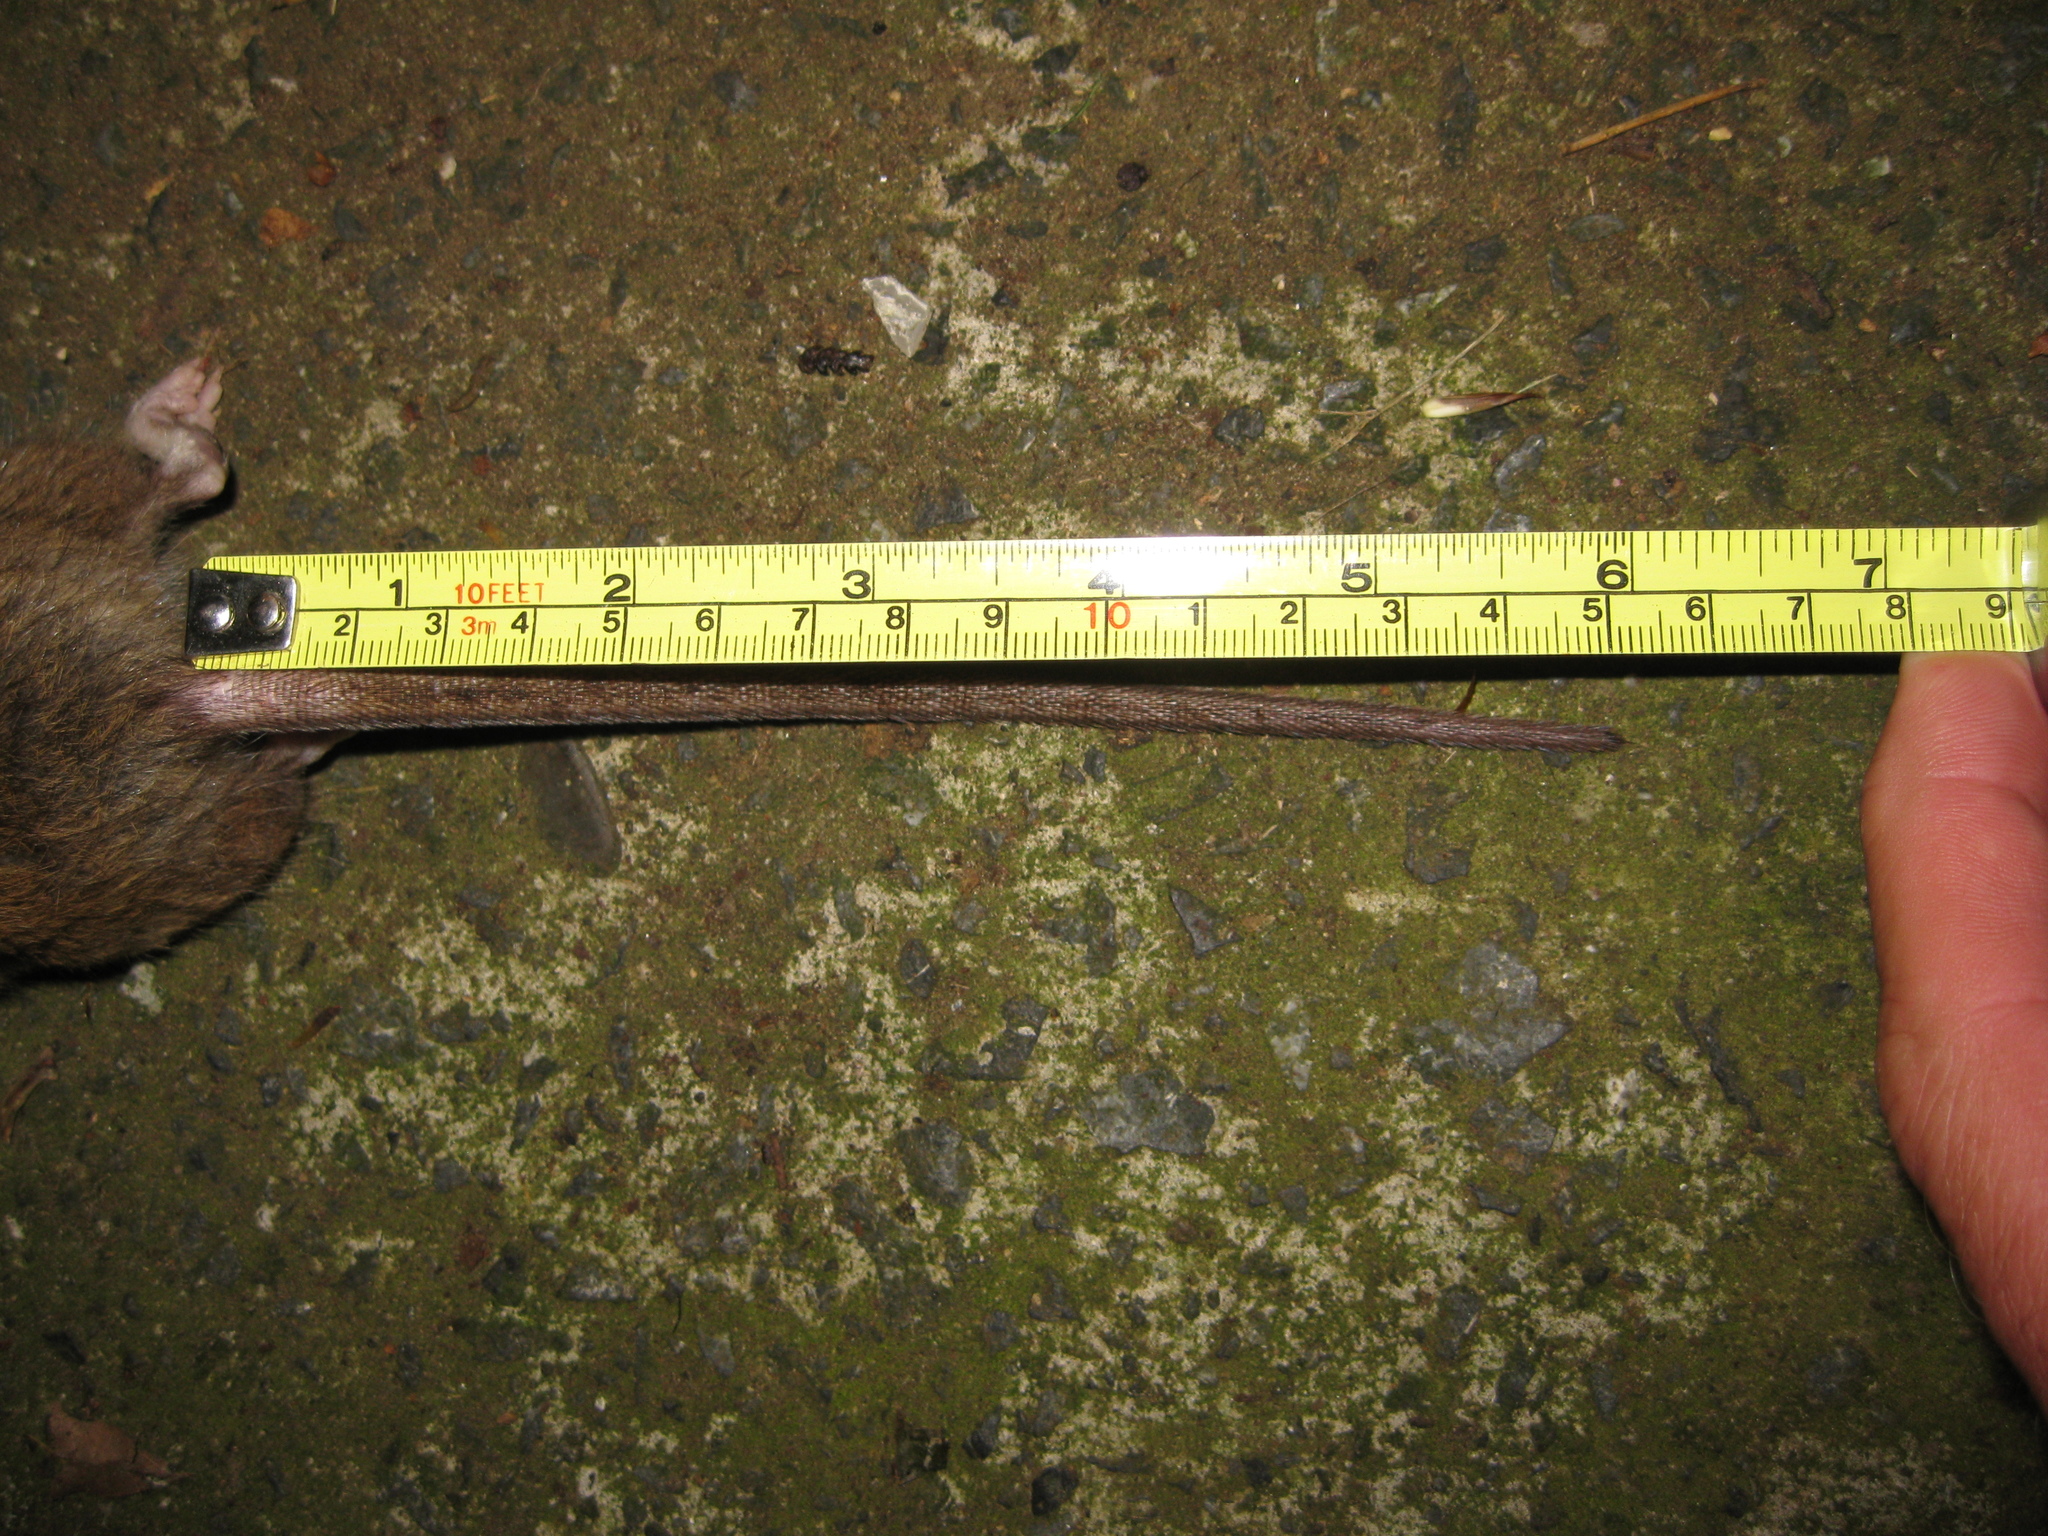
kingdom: Animalia
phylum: Chordata
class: Mammalia
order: Rodentia
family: Muridae
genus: Rattus
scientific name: Rattus norvegicus
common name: Brown rat
